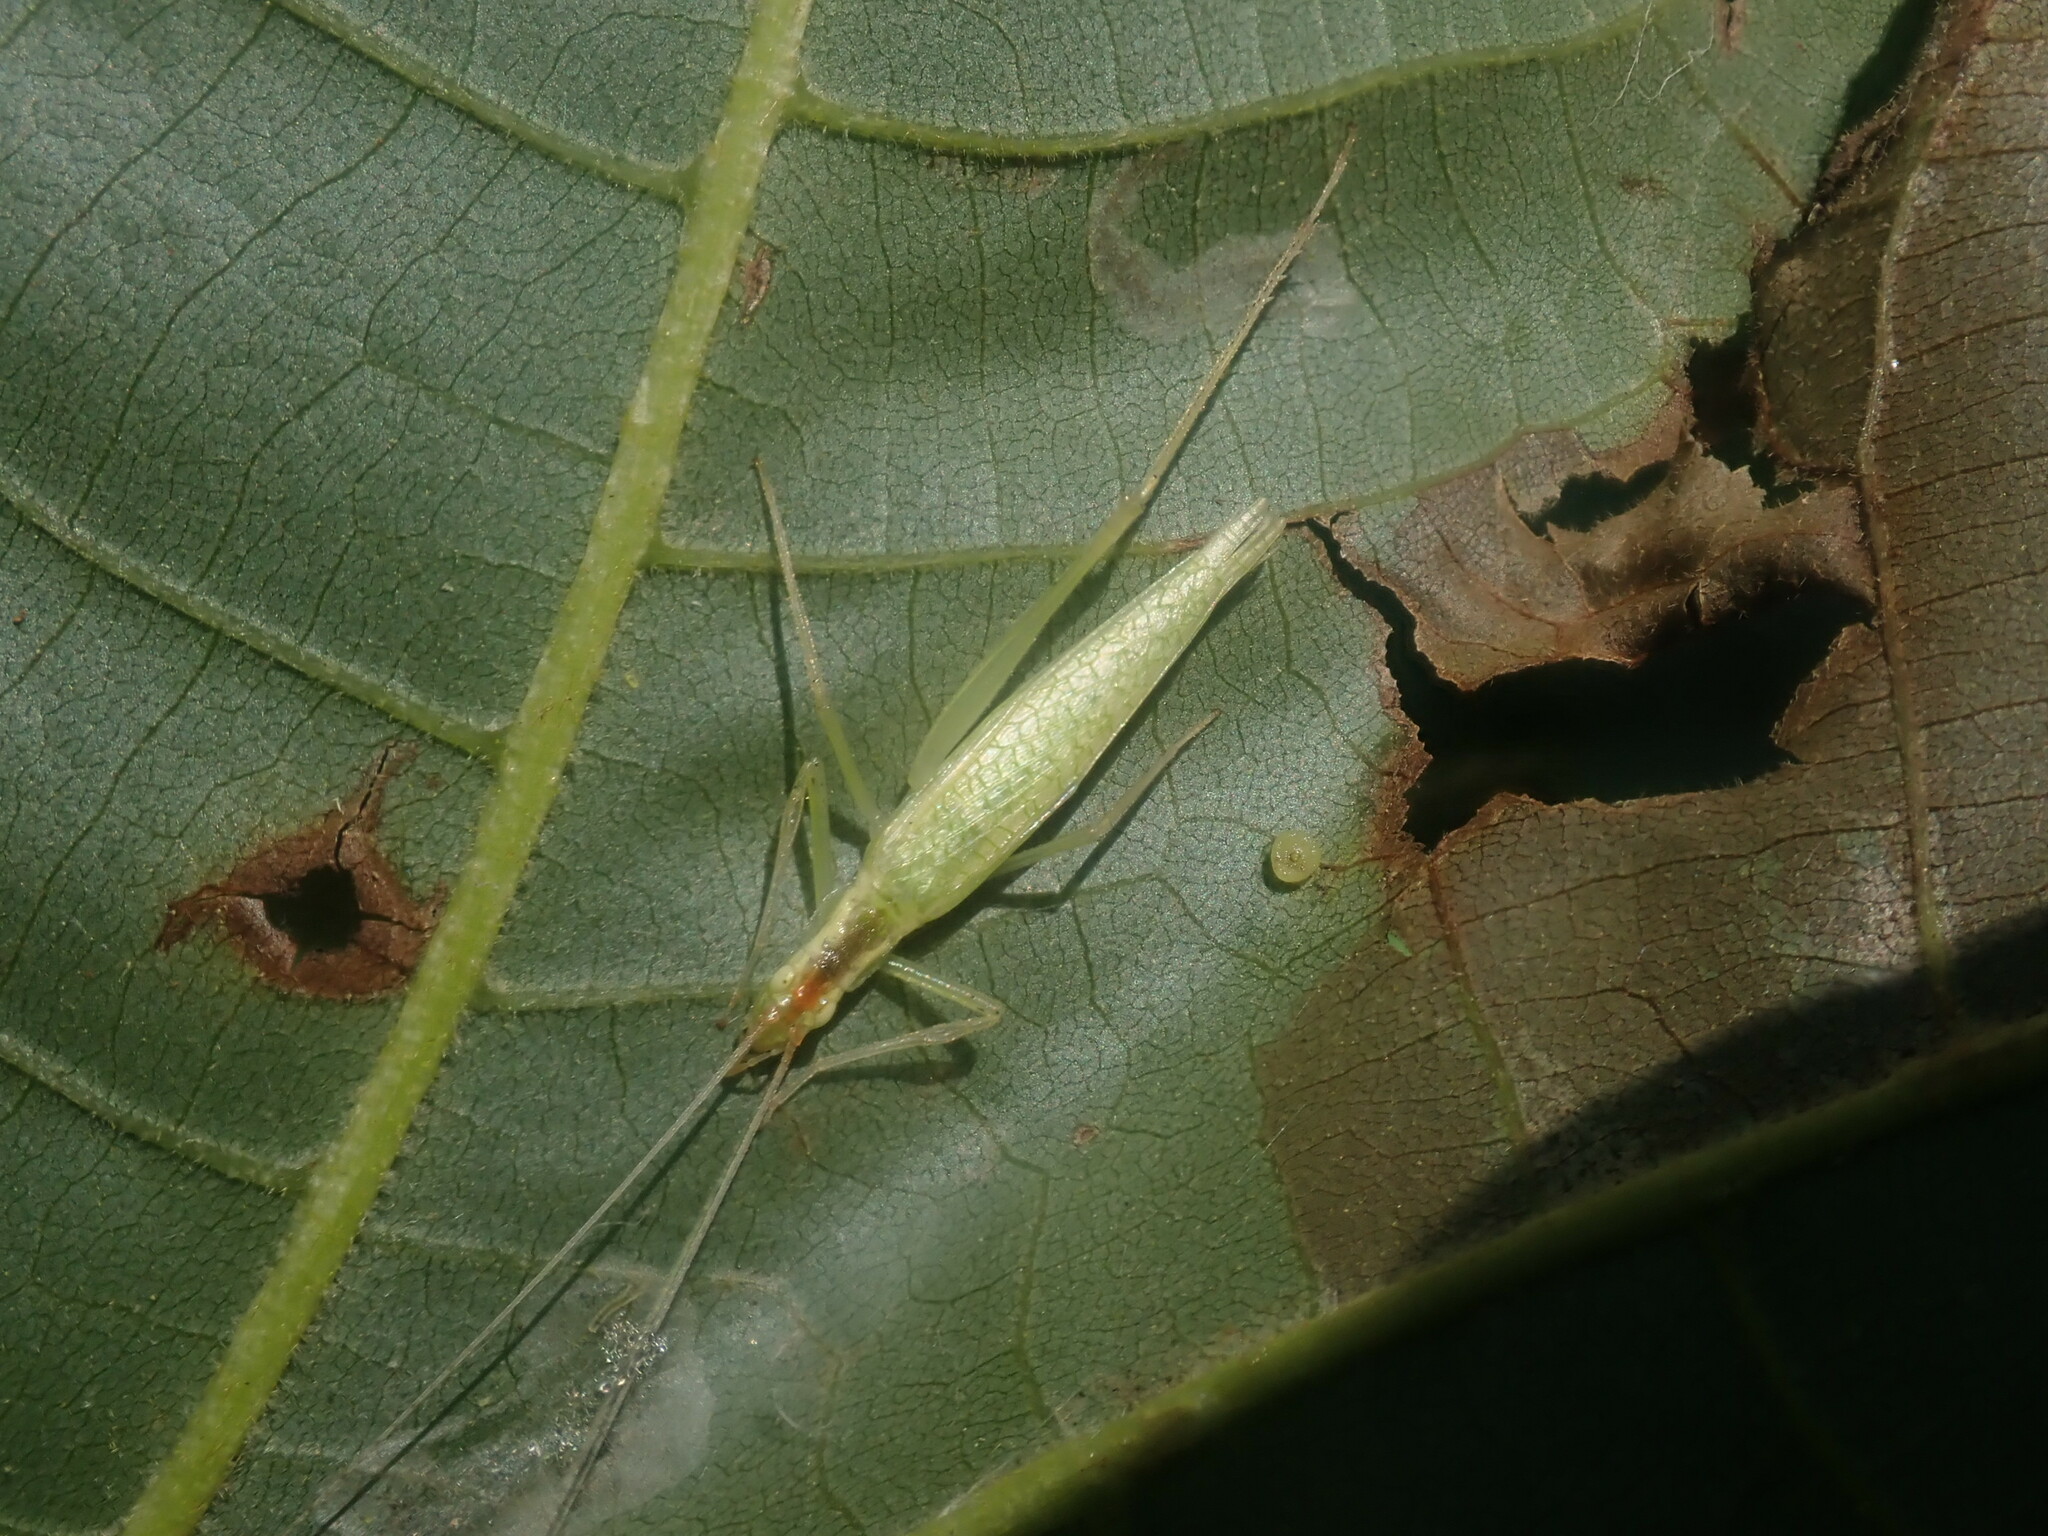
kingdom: Animalia
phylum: Arthropoda
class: Insecta
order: Orthoptera
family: Gryllidae
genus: Oecanthus
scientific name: Oecanthus
